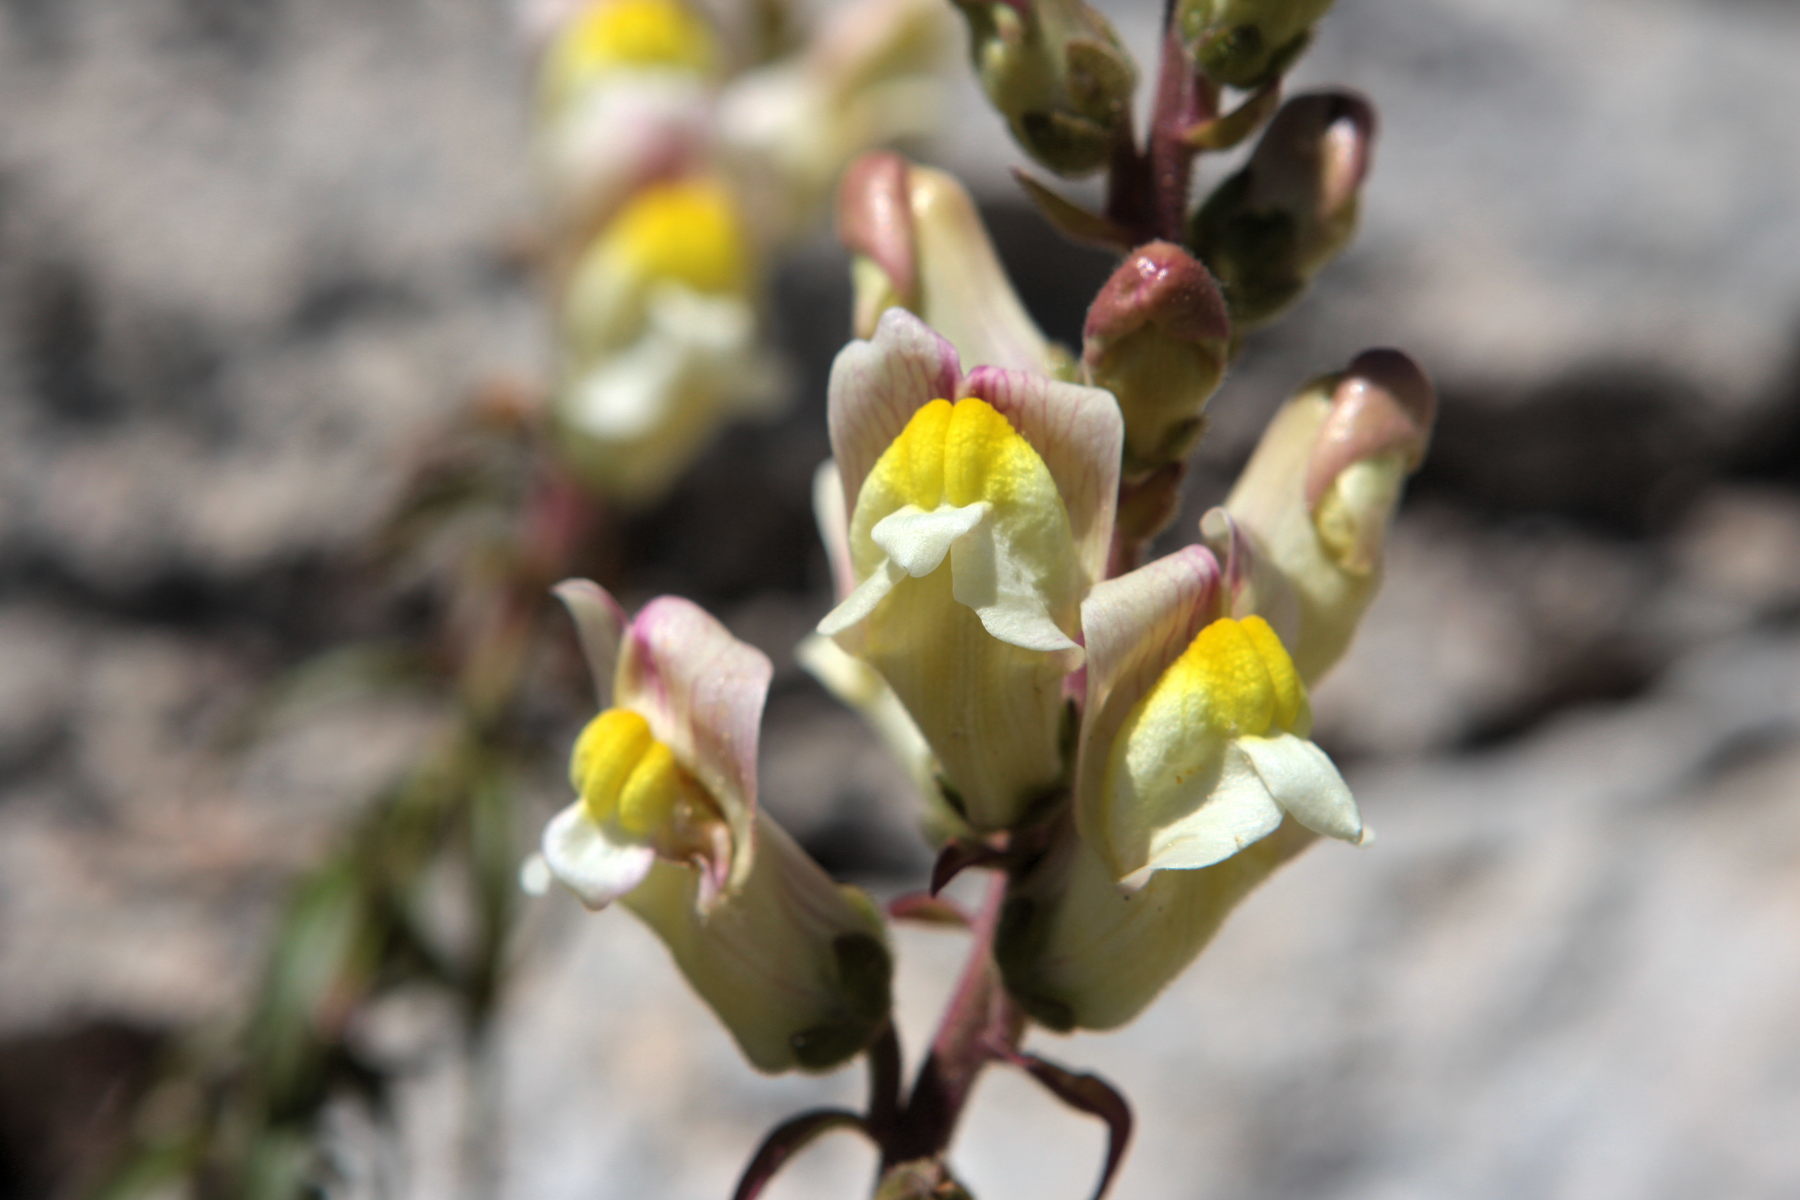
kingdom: Plantae
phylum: Tracheophyta
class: Magnoliopsida
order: Lamiales
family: Plantaginaceae
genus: Antirrhinum
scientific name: Antirrhinum siculum
